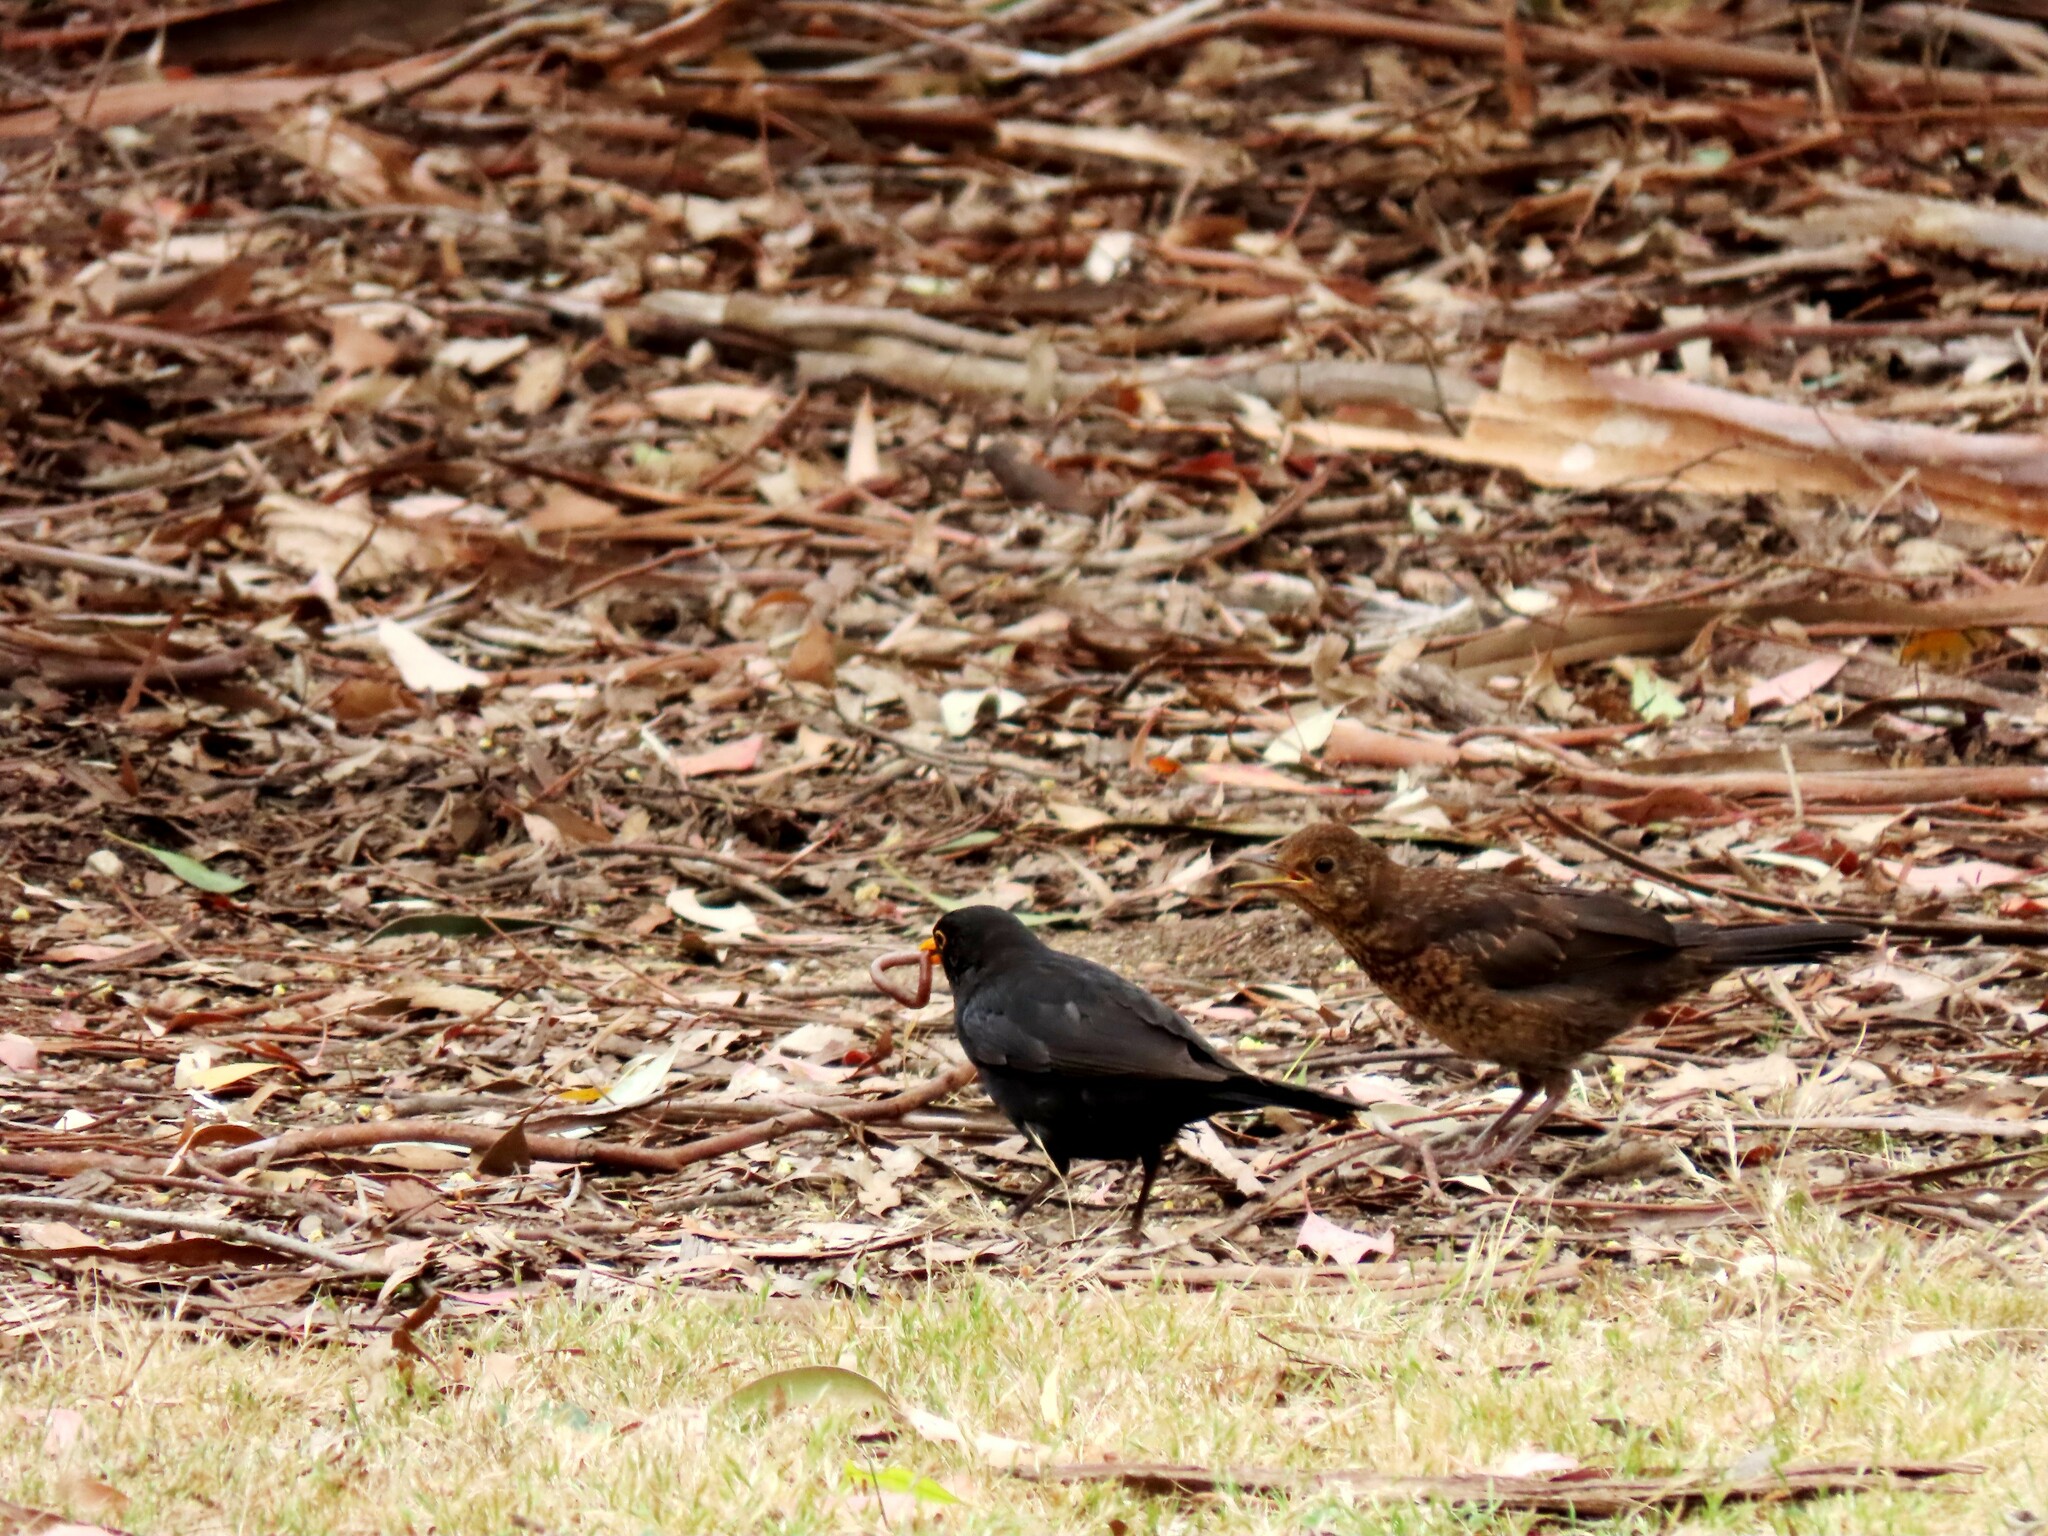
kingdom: Animalia
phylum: Chordata
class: Aves
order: Passeriformes
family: Turdidae
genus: Turdus
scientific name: Turdus merula
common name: Common blackbird
